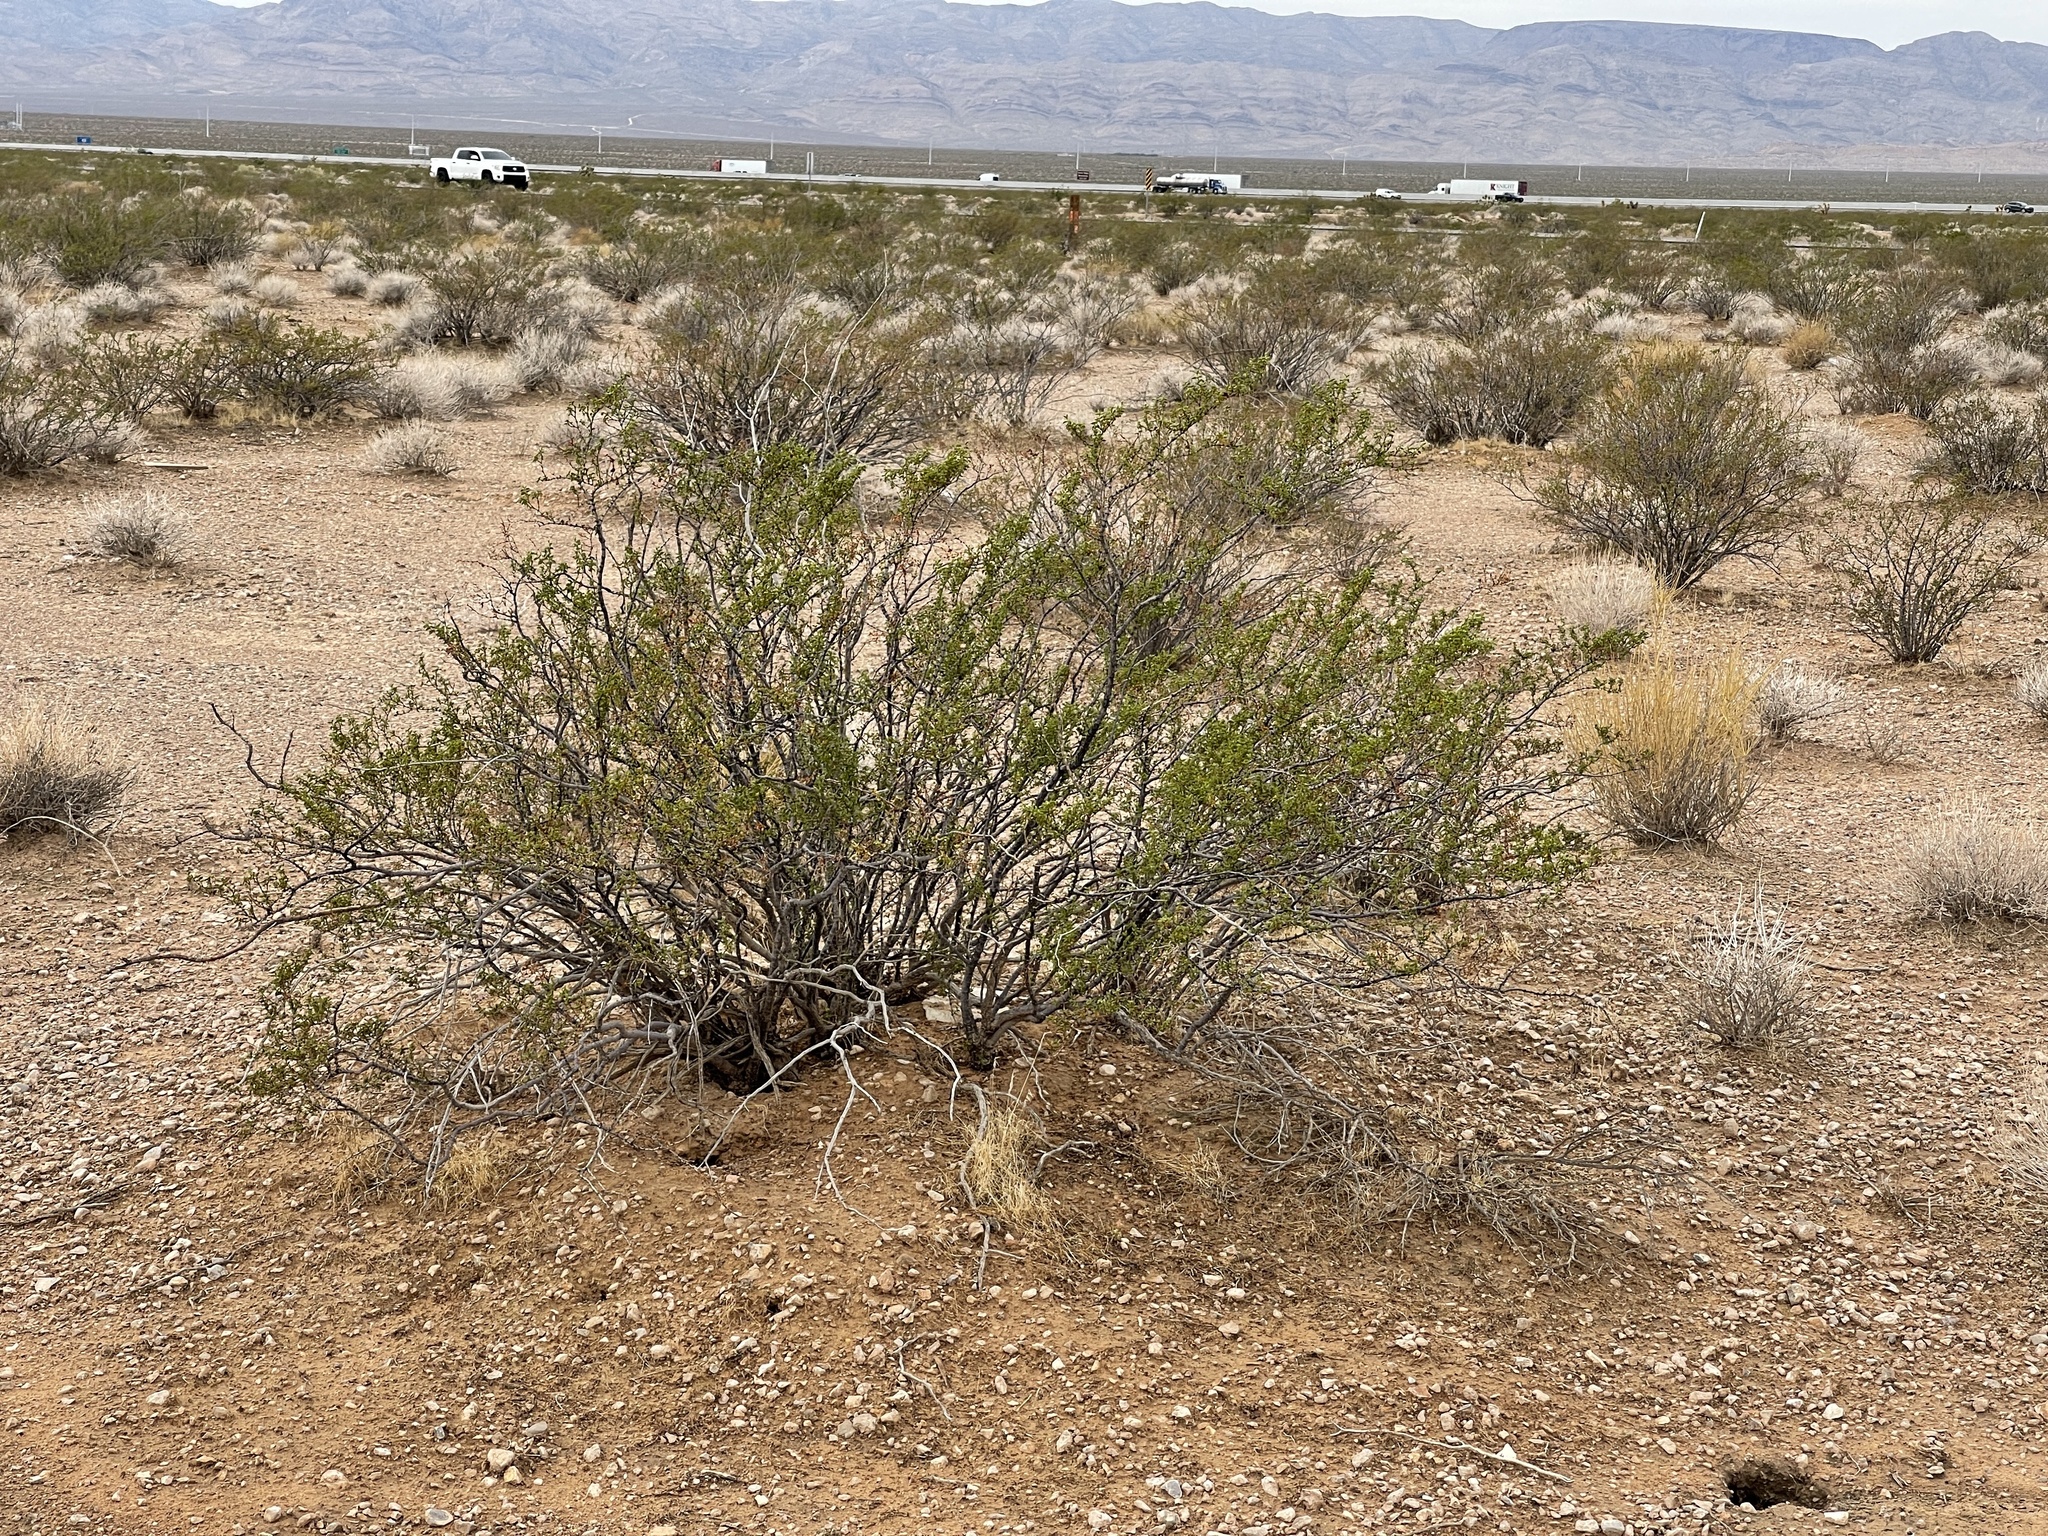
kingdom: Plantae
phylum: Tracheophyta
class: Magnoliopsida
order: Zygophyllales
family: Zygophyllaceae
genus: Larrea
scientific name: Larrea tridentata
